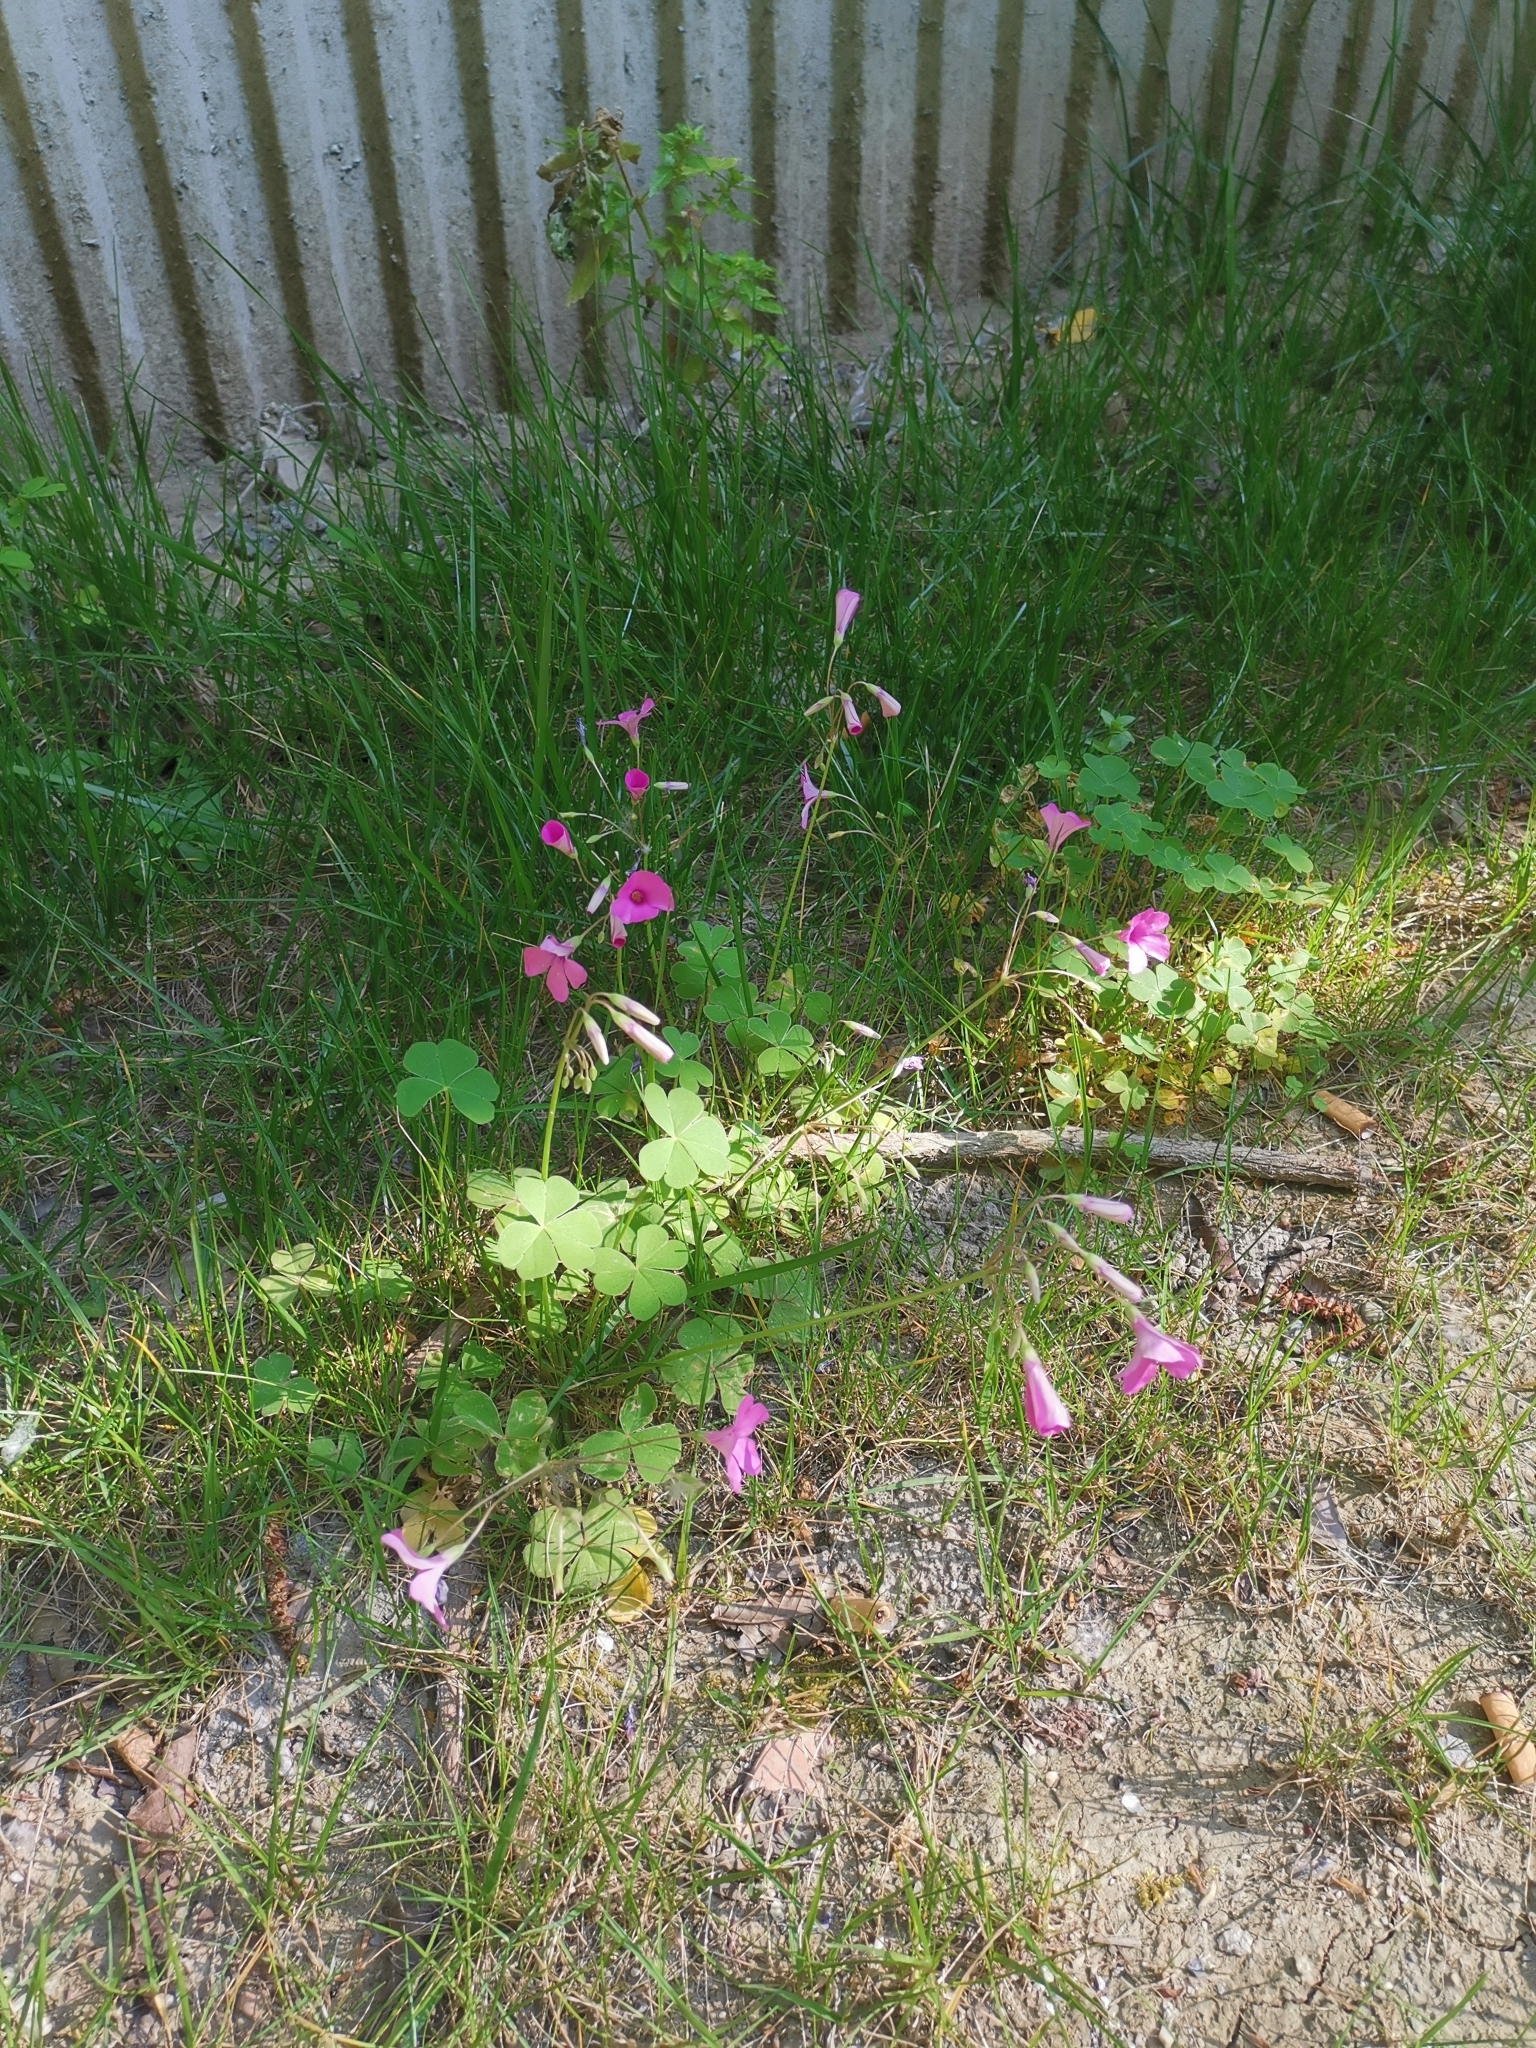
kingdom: Plantae
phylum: Tracheophyta
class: Magnoliopsida
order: Oxalidales
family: Oxalidaceae
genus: Oxalis
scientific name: Oxalis articulata
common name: Pink-sorrel
